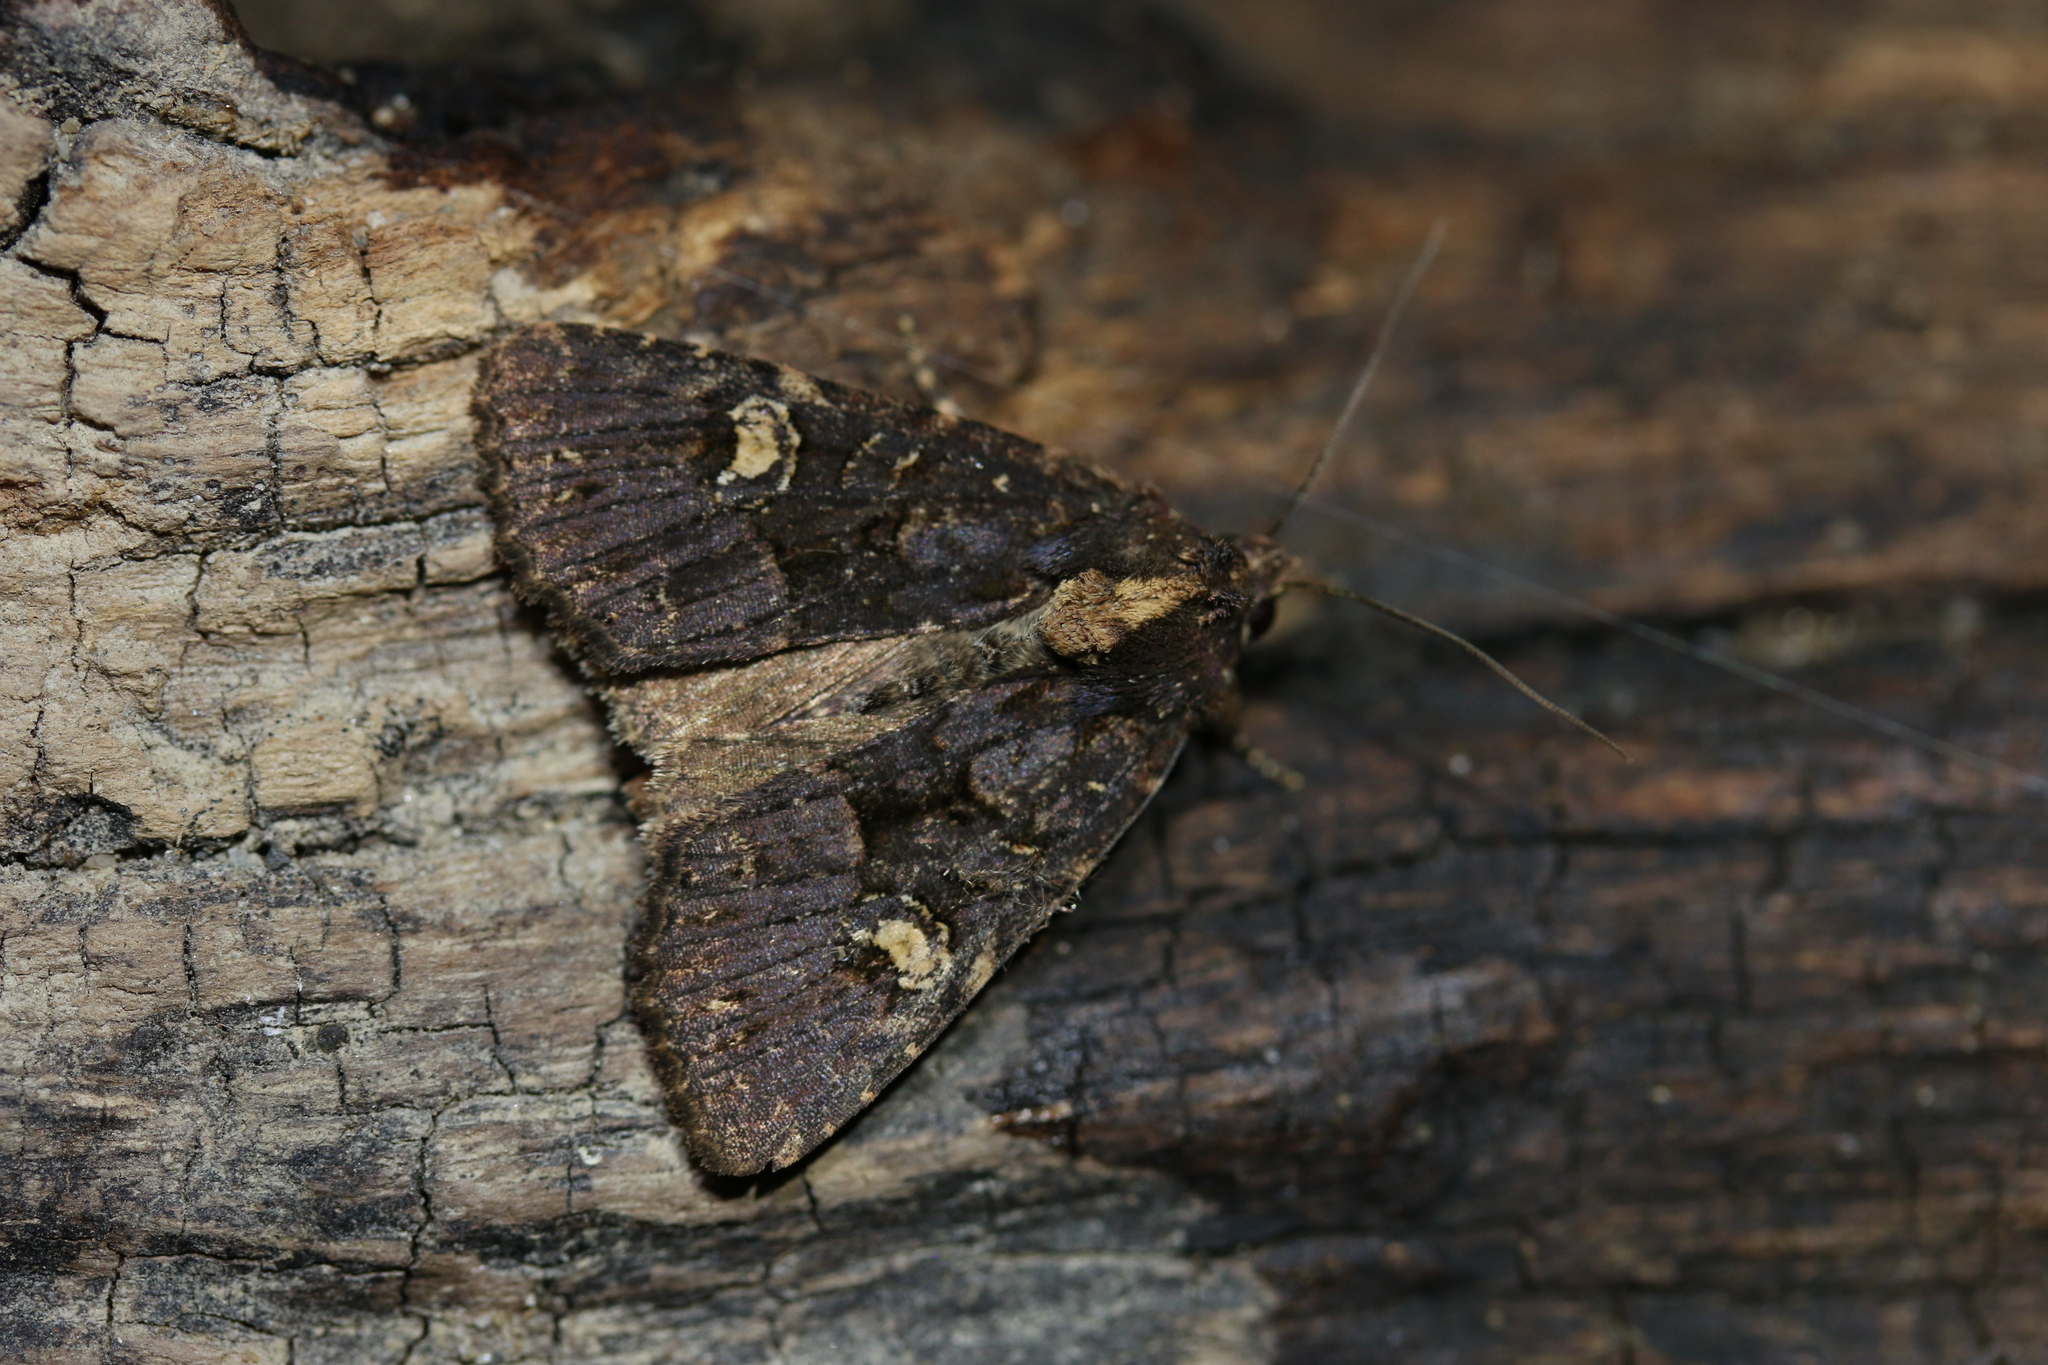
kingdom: Animalia
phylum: Arthropoda
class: Insecta
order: Lepidoptera
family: Noctuidae
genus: Mesapamea
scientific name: Mesapamea
